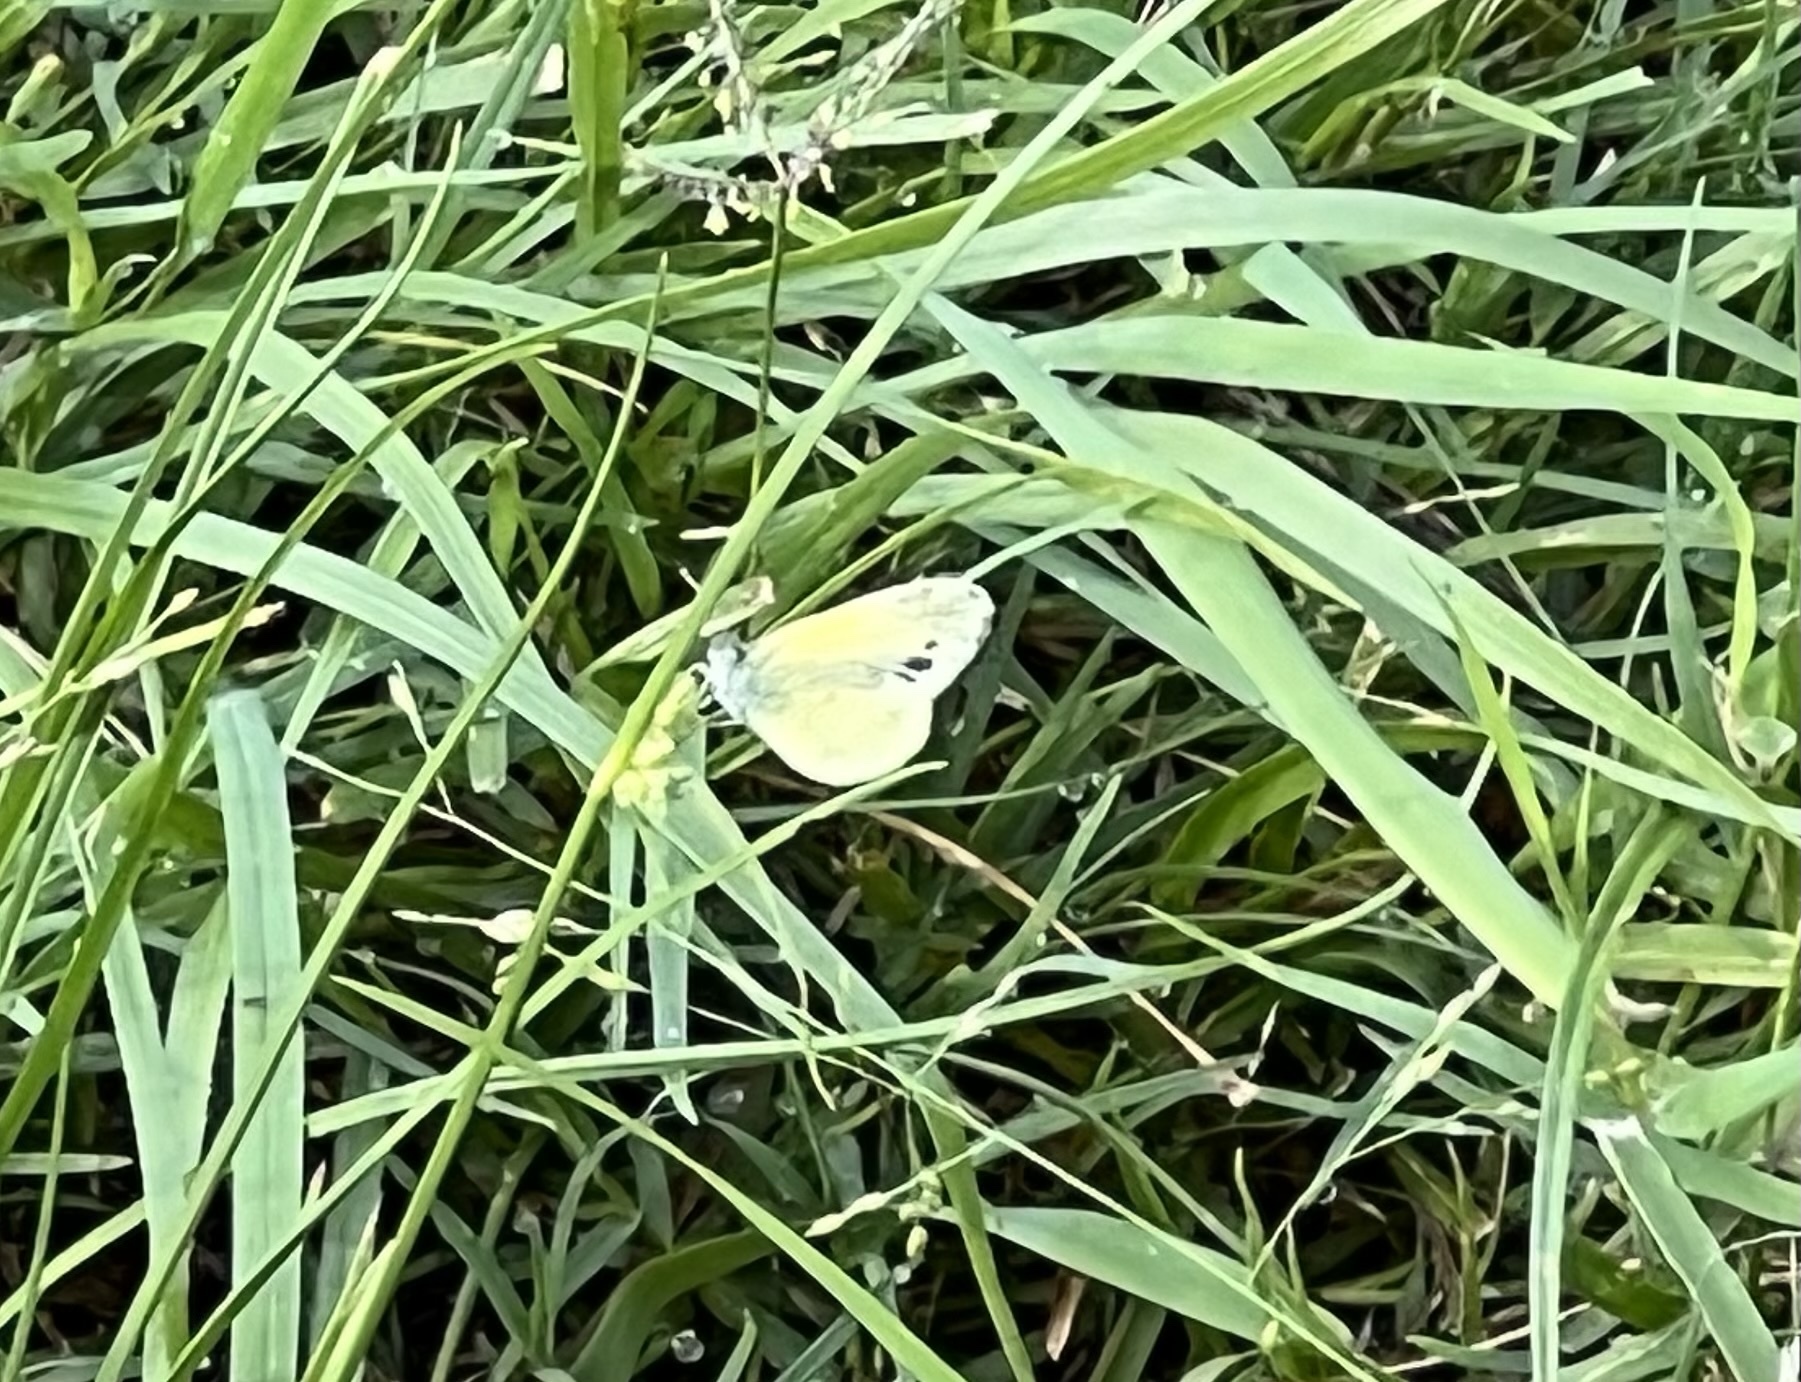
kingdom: Animalia
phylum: Arthropoda
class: Insecta
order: Lepidoptera
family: Pieridae
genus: Nathalis
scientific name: Nathalis iole
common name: Dainty sulphur
